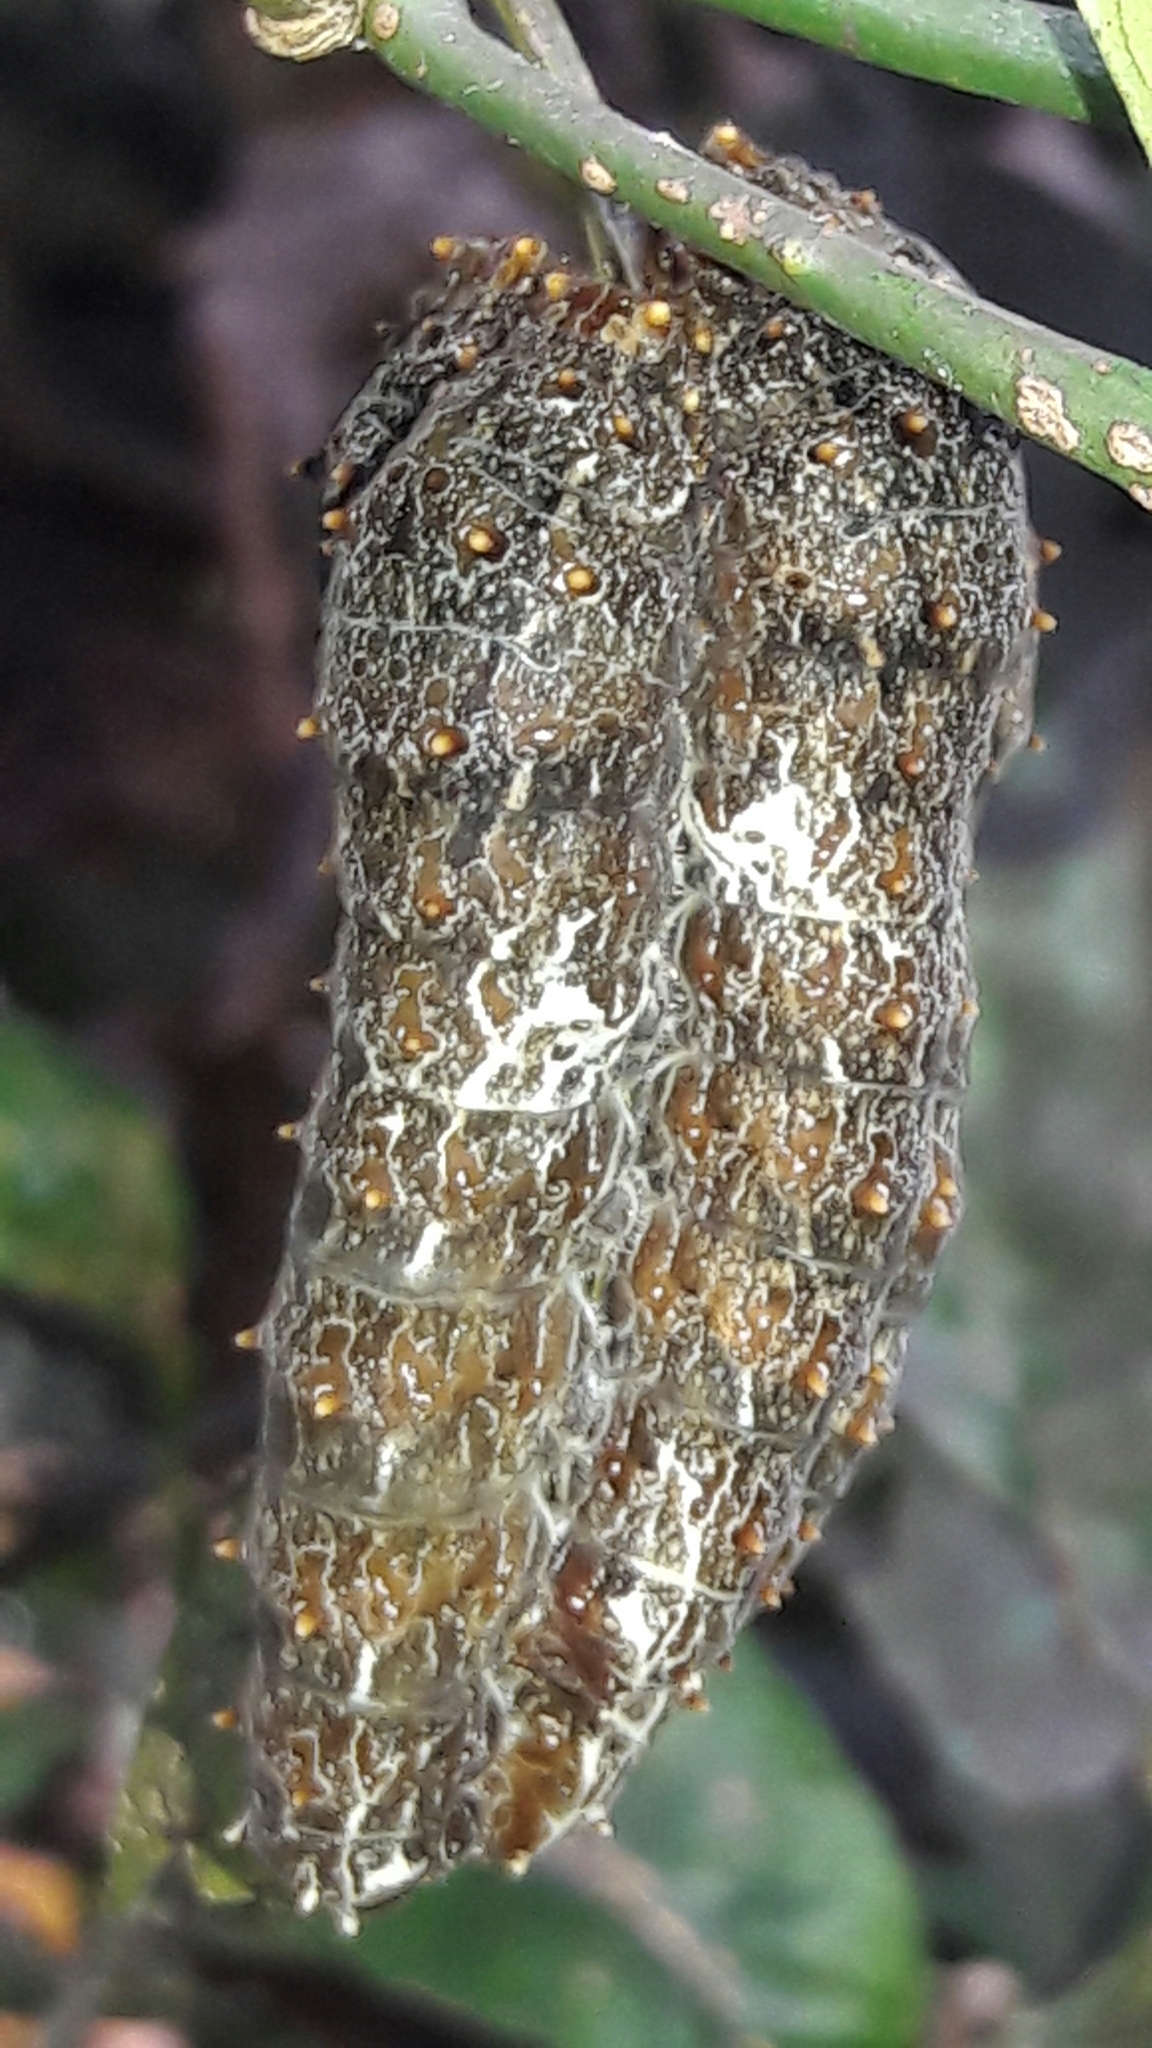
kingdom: Animalia
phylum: Arthropoda
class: Insecta
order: Lepidoptera
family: Papilionidae
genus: Papilio
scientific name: Papilio anchisiades
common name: Idaes swallowtail
